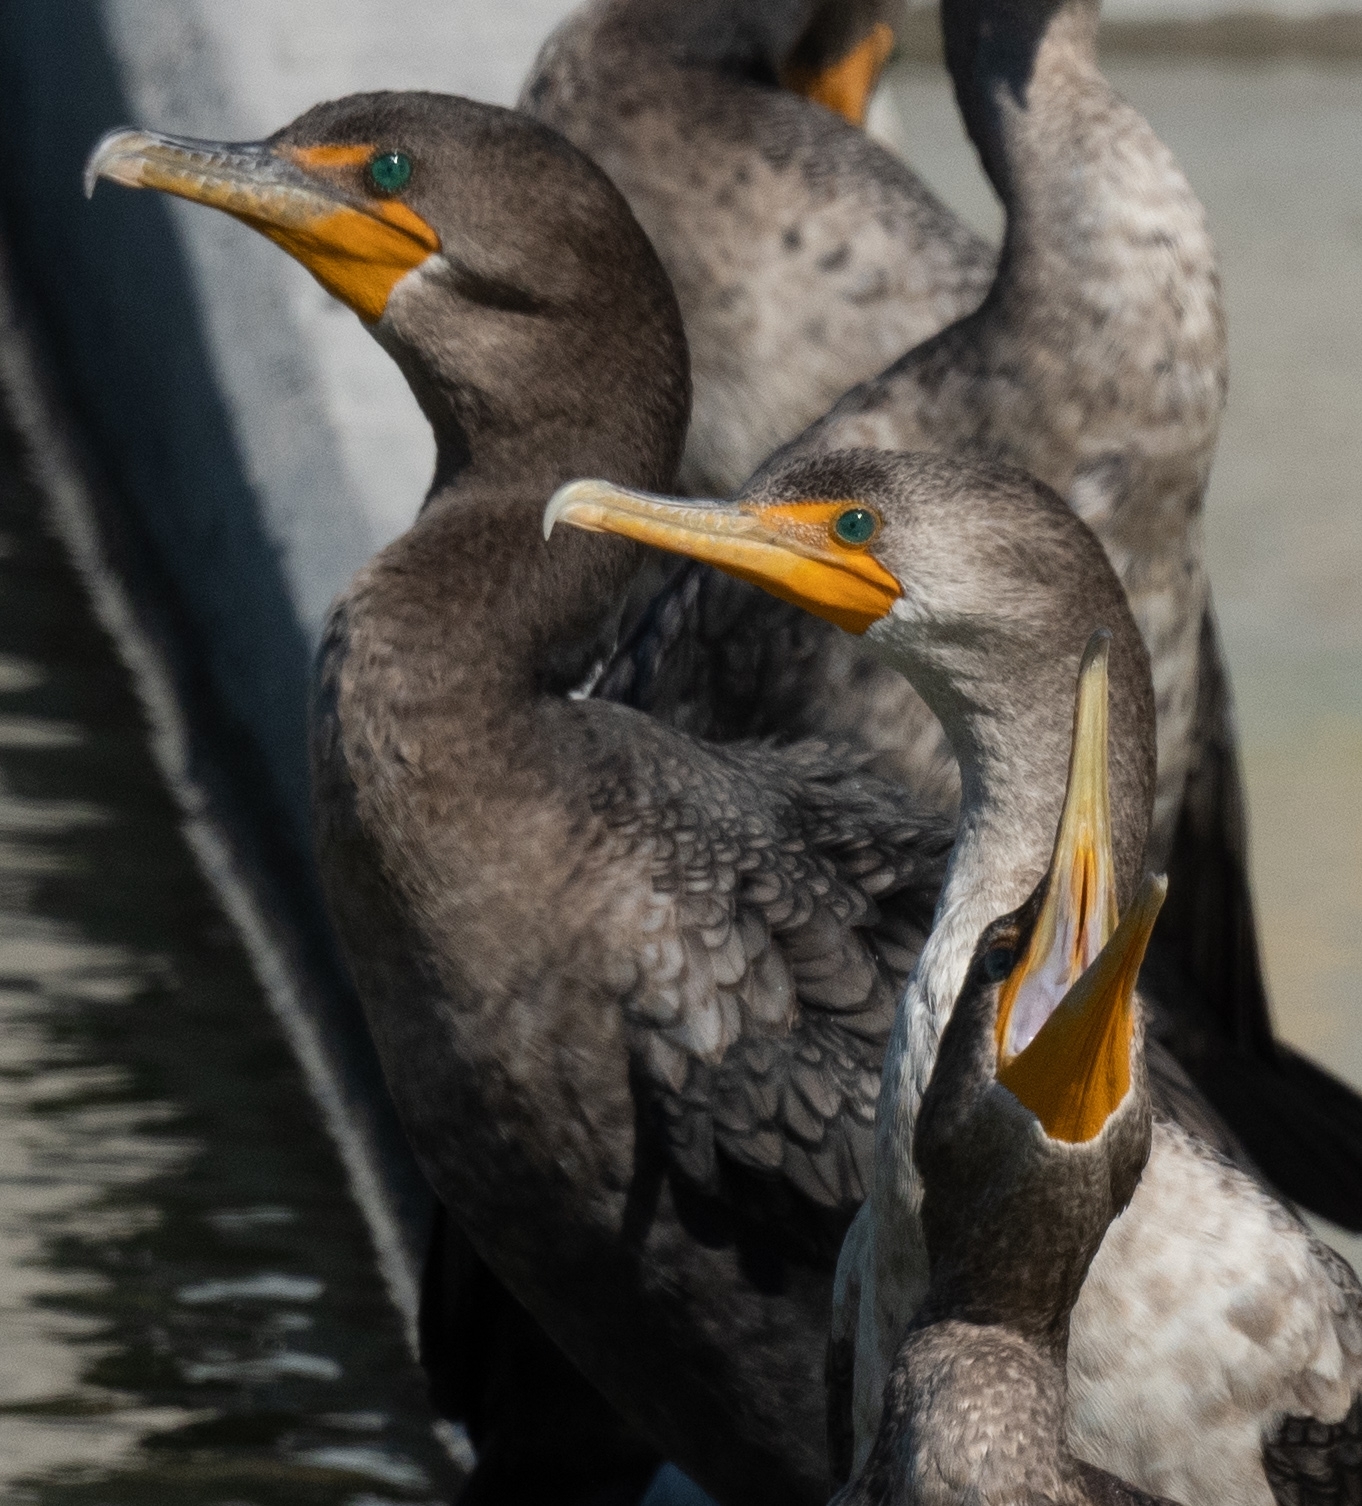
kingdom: Animalia
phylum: Chordata
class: Aves
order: Suliformes
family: Phalacrocoracidae
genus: Phalacrocorax
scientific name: Phalacrocorax auritus
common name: Double-crested cormorant
